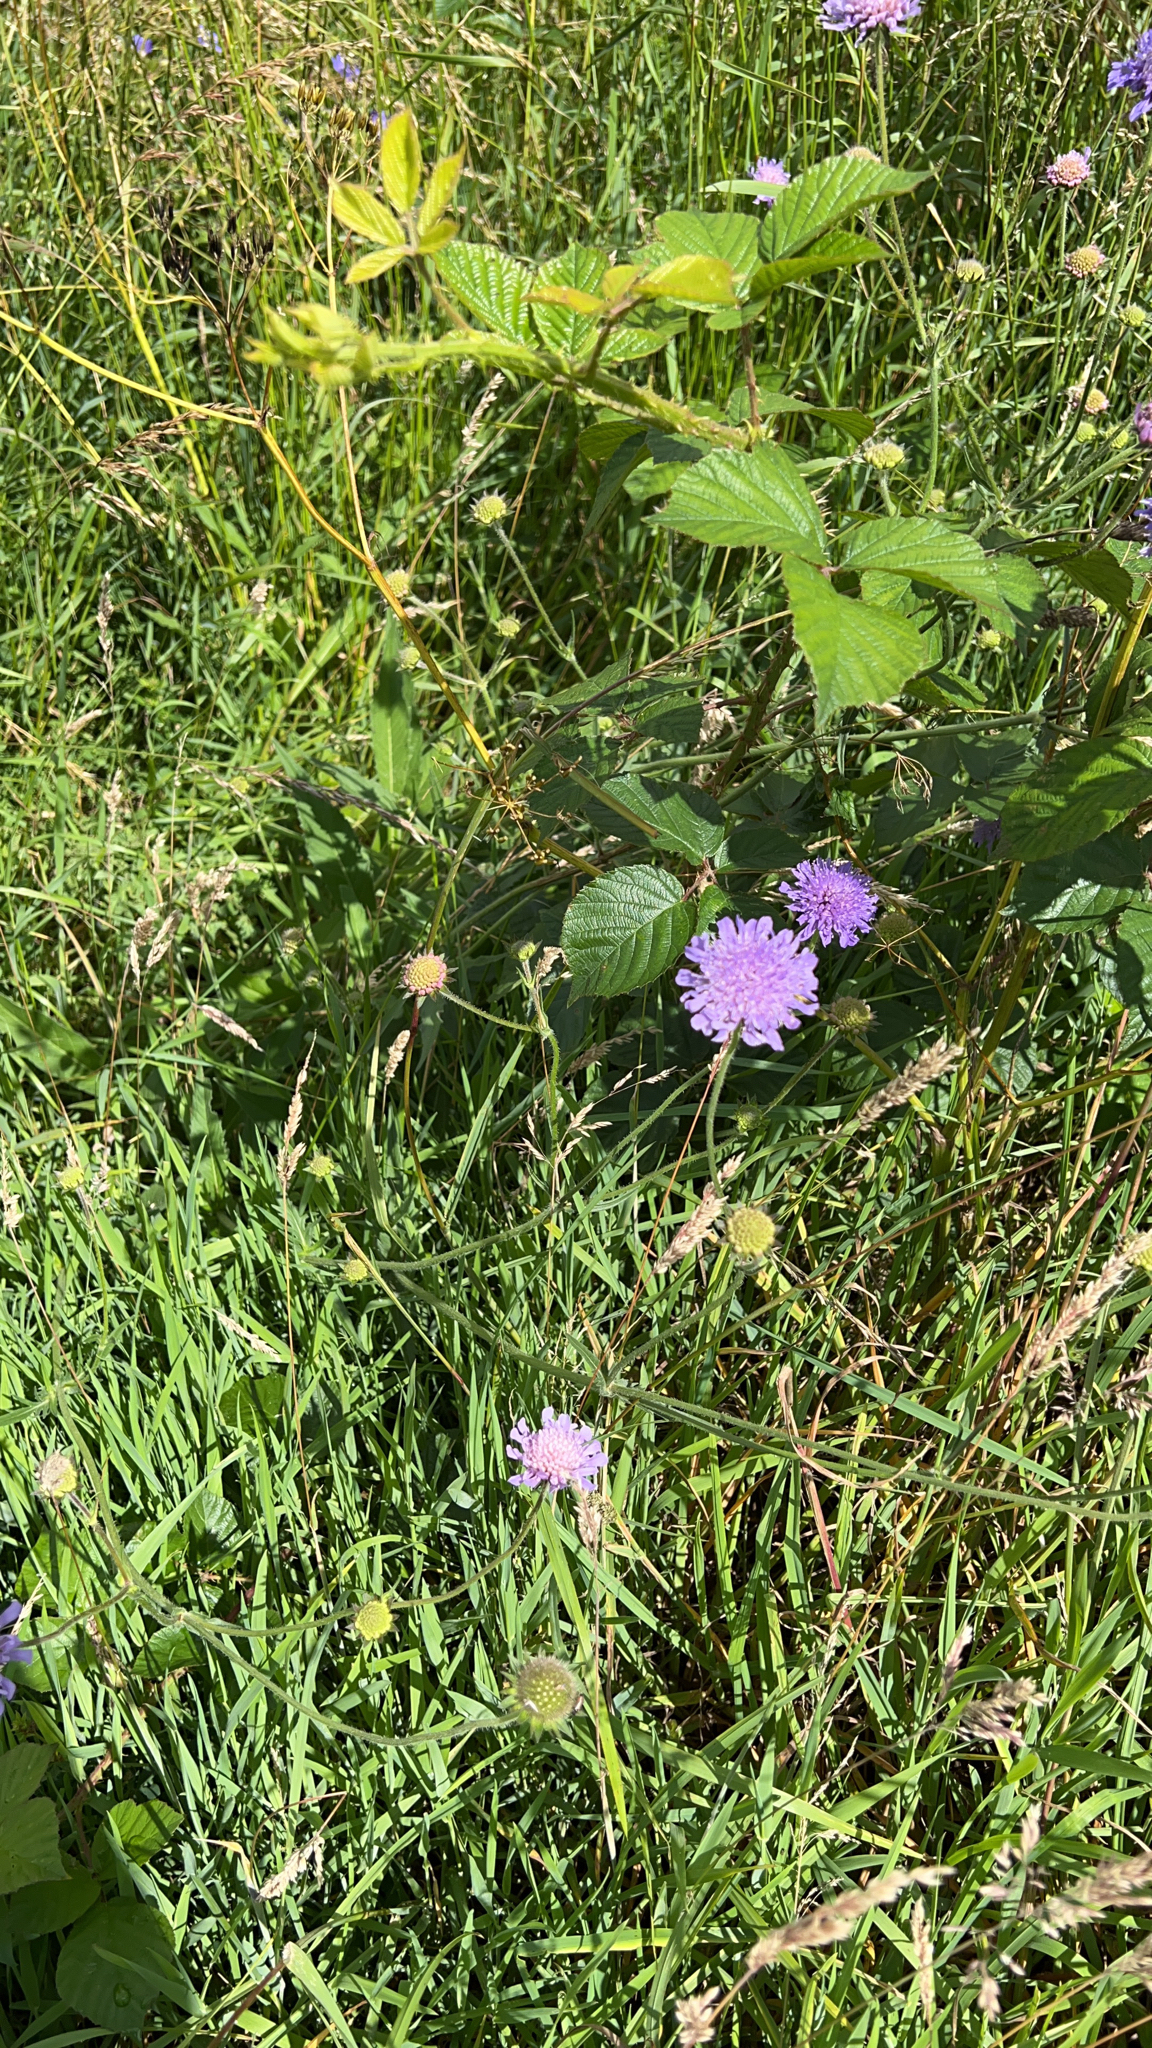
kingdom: Plantae
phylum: Tracheophyta
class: Magnoliopsida
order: Dipsacales
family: Caprifoliaceae
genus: Knautia
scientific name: Knautia arvensis
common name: Field scabiosa
